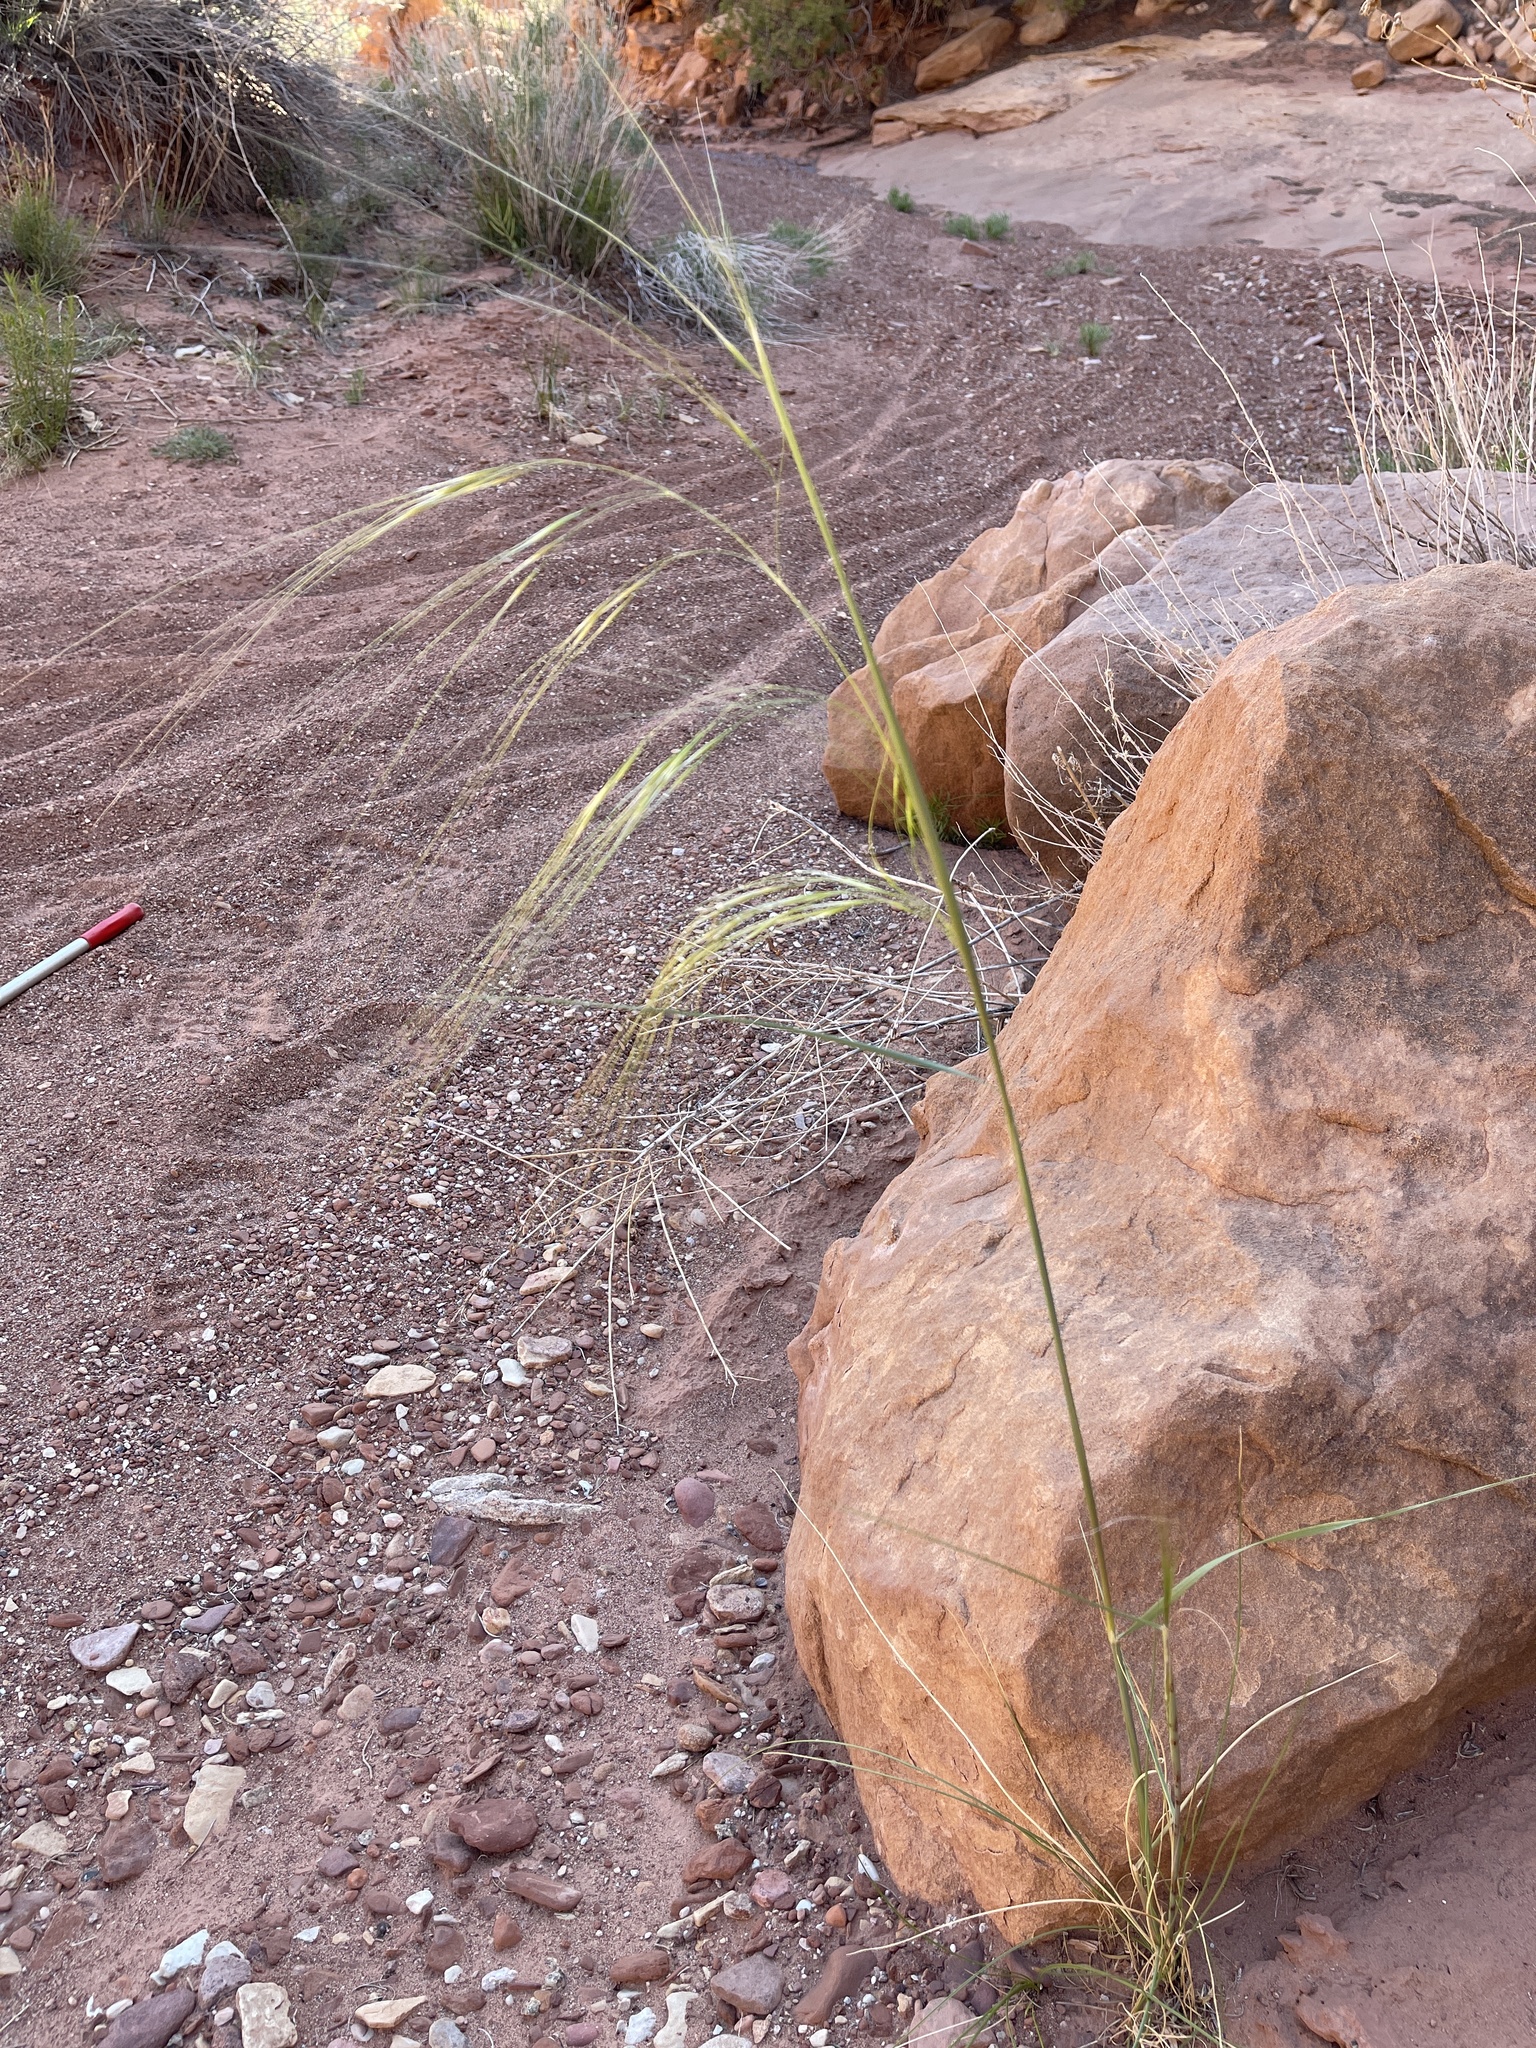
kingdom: Plantae
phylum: Tracheophyta
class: Liliopsida
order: Poales
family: Poaceae
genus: Hesperostipa
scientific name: Hesperostipa comata
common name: Needle-and-thread grass
